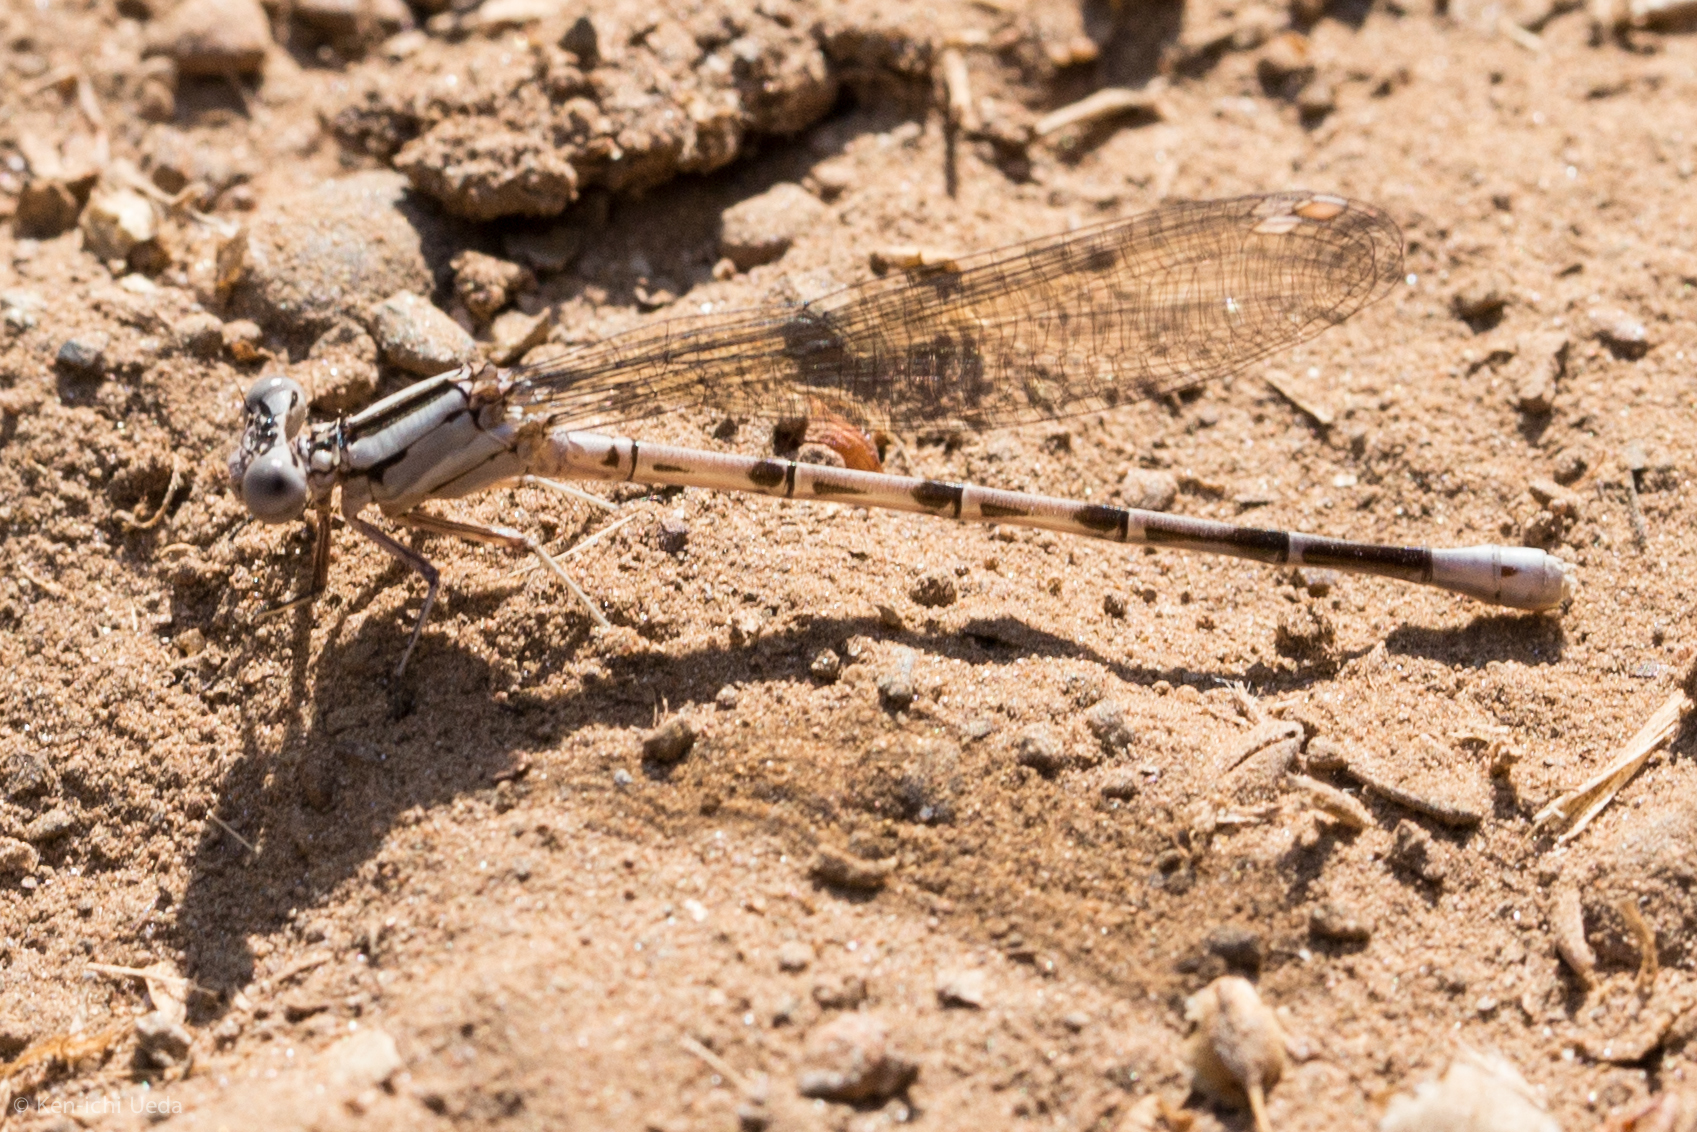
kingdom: Animalia
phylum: Arthropoda
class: Insecta
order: Odonata
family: Coenagrionidae
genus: Argia
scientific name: Argia vivida
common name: Vivid dancer
